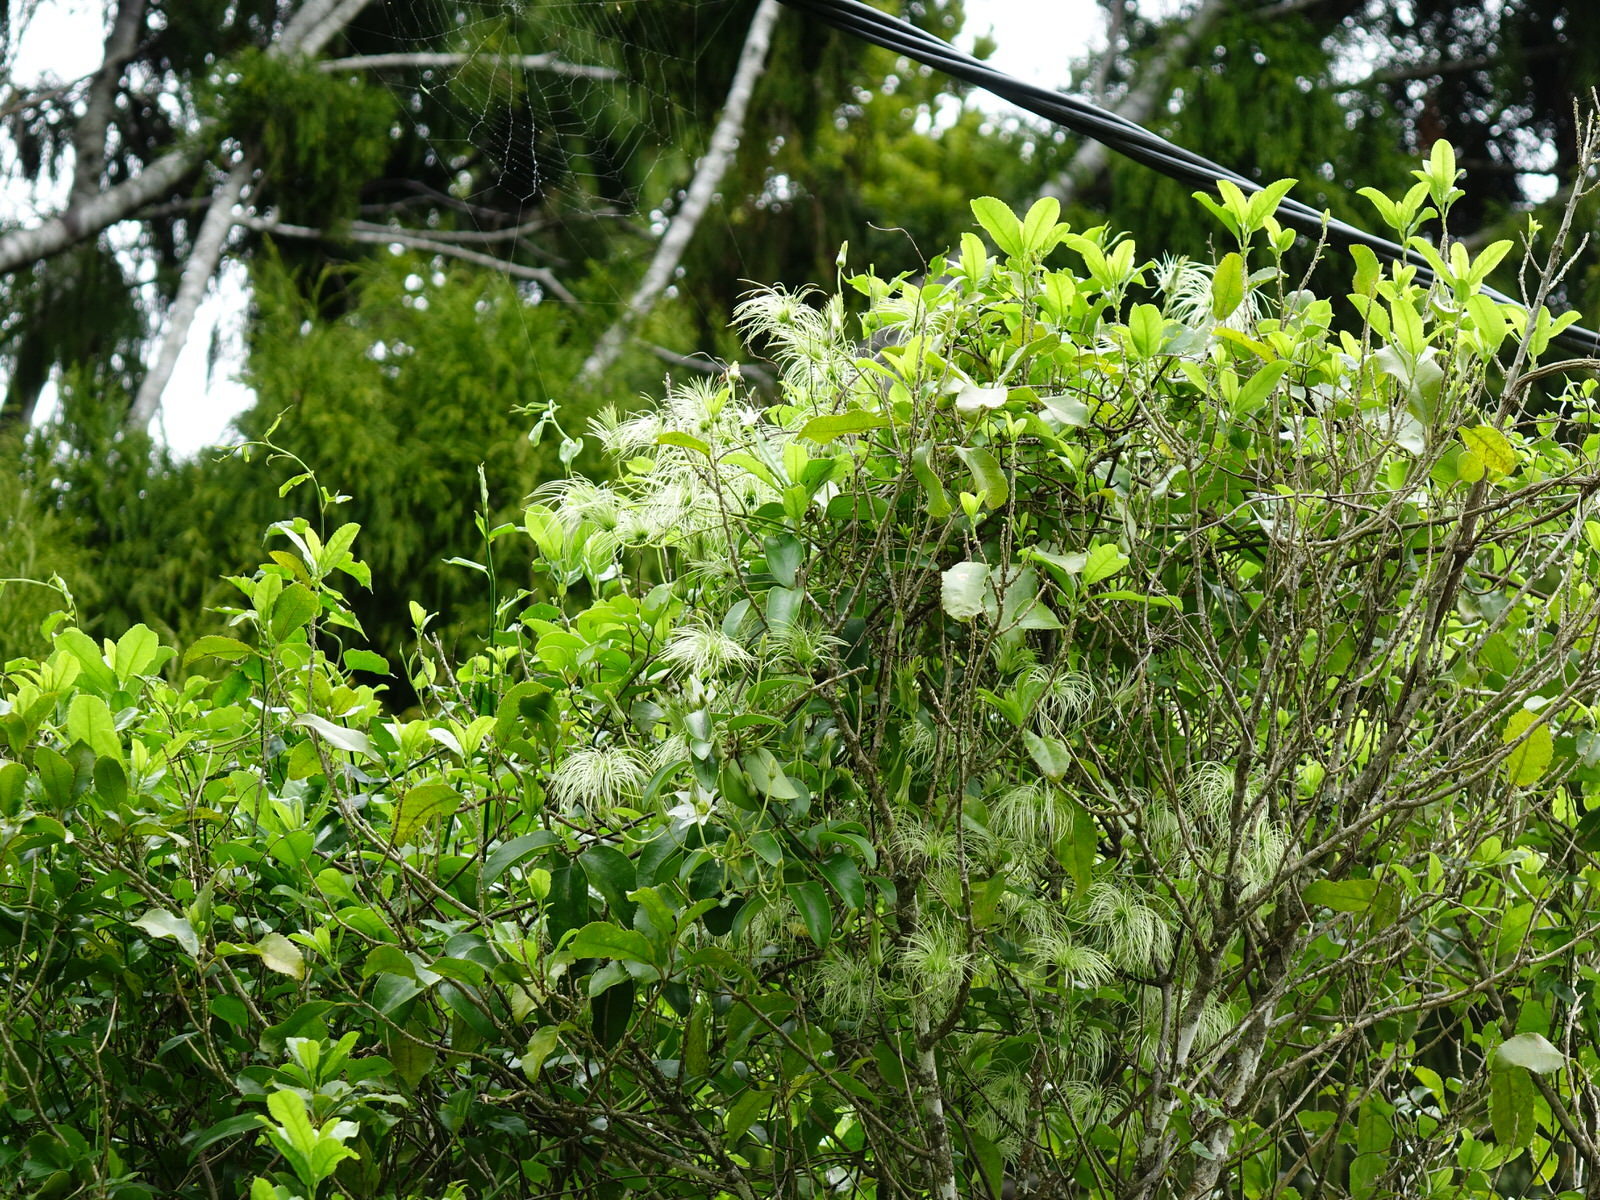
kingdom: Plantae
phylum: Tracheophyta
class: Magnoliopsida
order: Ranunculales
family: Ranunculaceae
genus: Clematis
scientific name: Clematis paniculata
